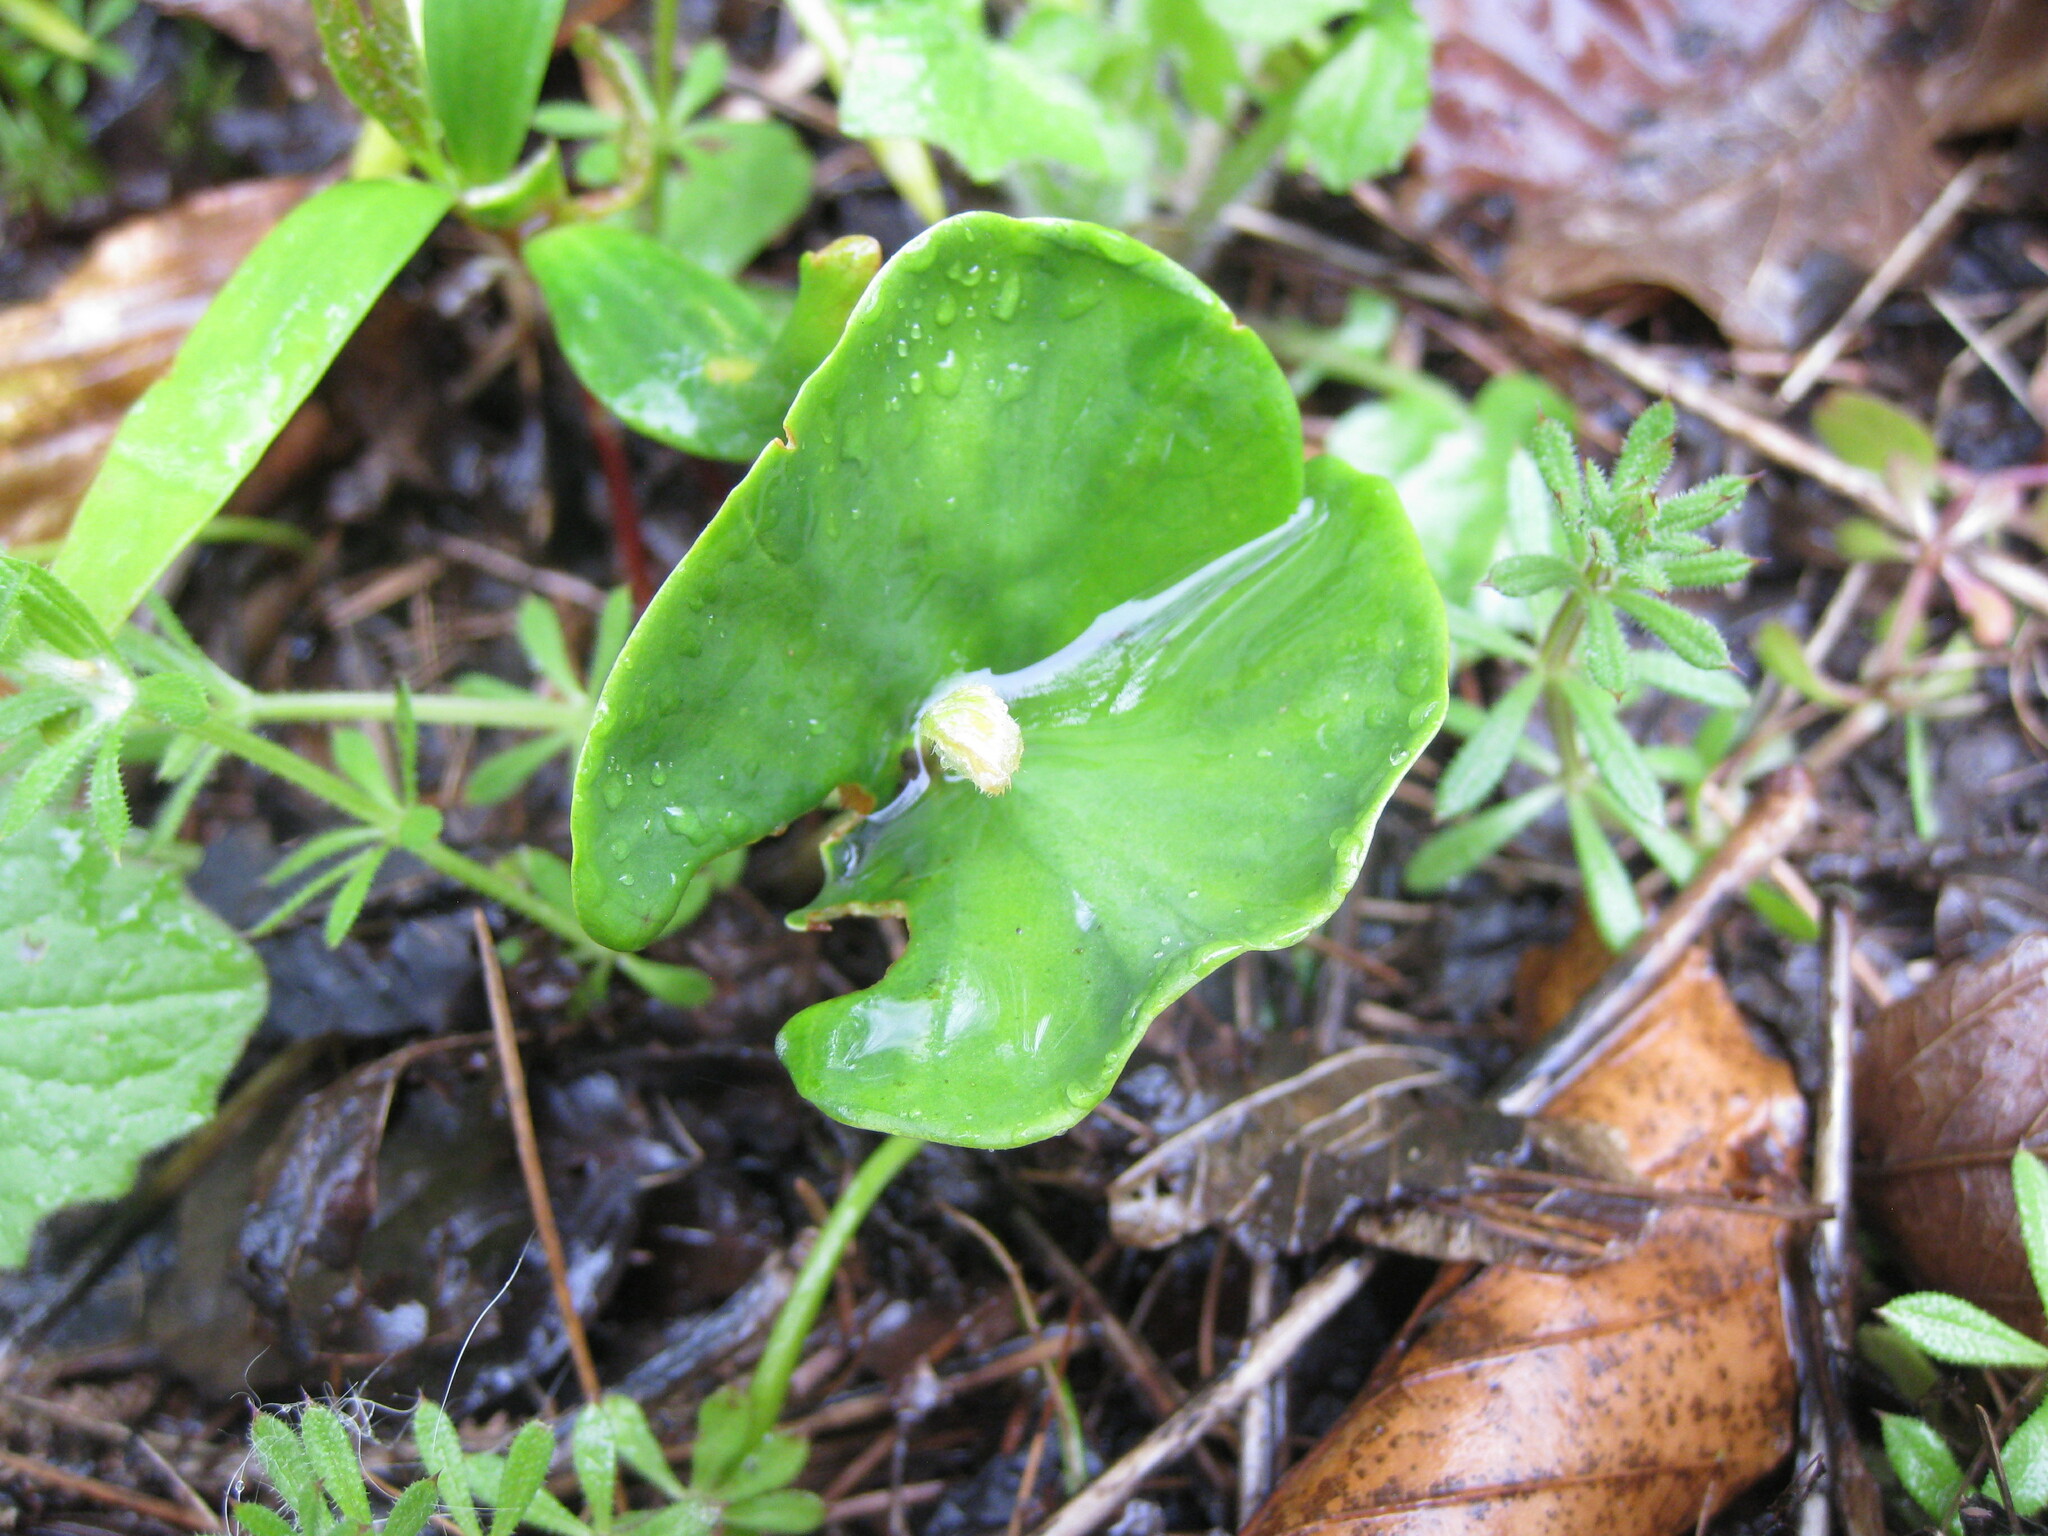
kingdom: Plantae
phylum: Tracheophyta
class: Magnoliopsida
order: Fagales
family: Fagaceae
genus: Fagus
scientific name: Fagus sylvatica
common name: Beech
